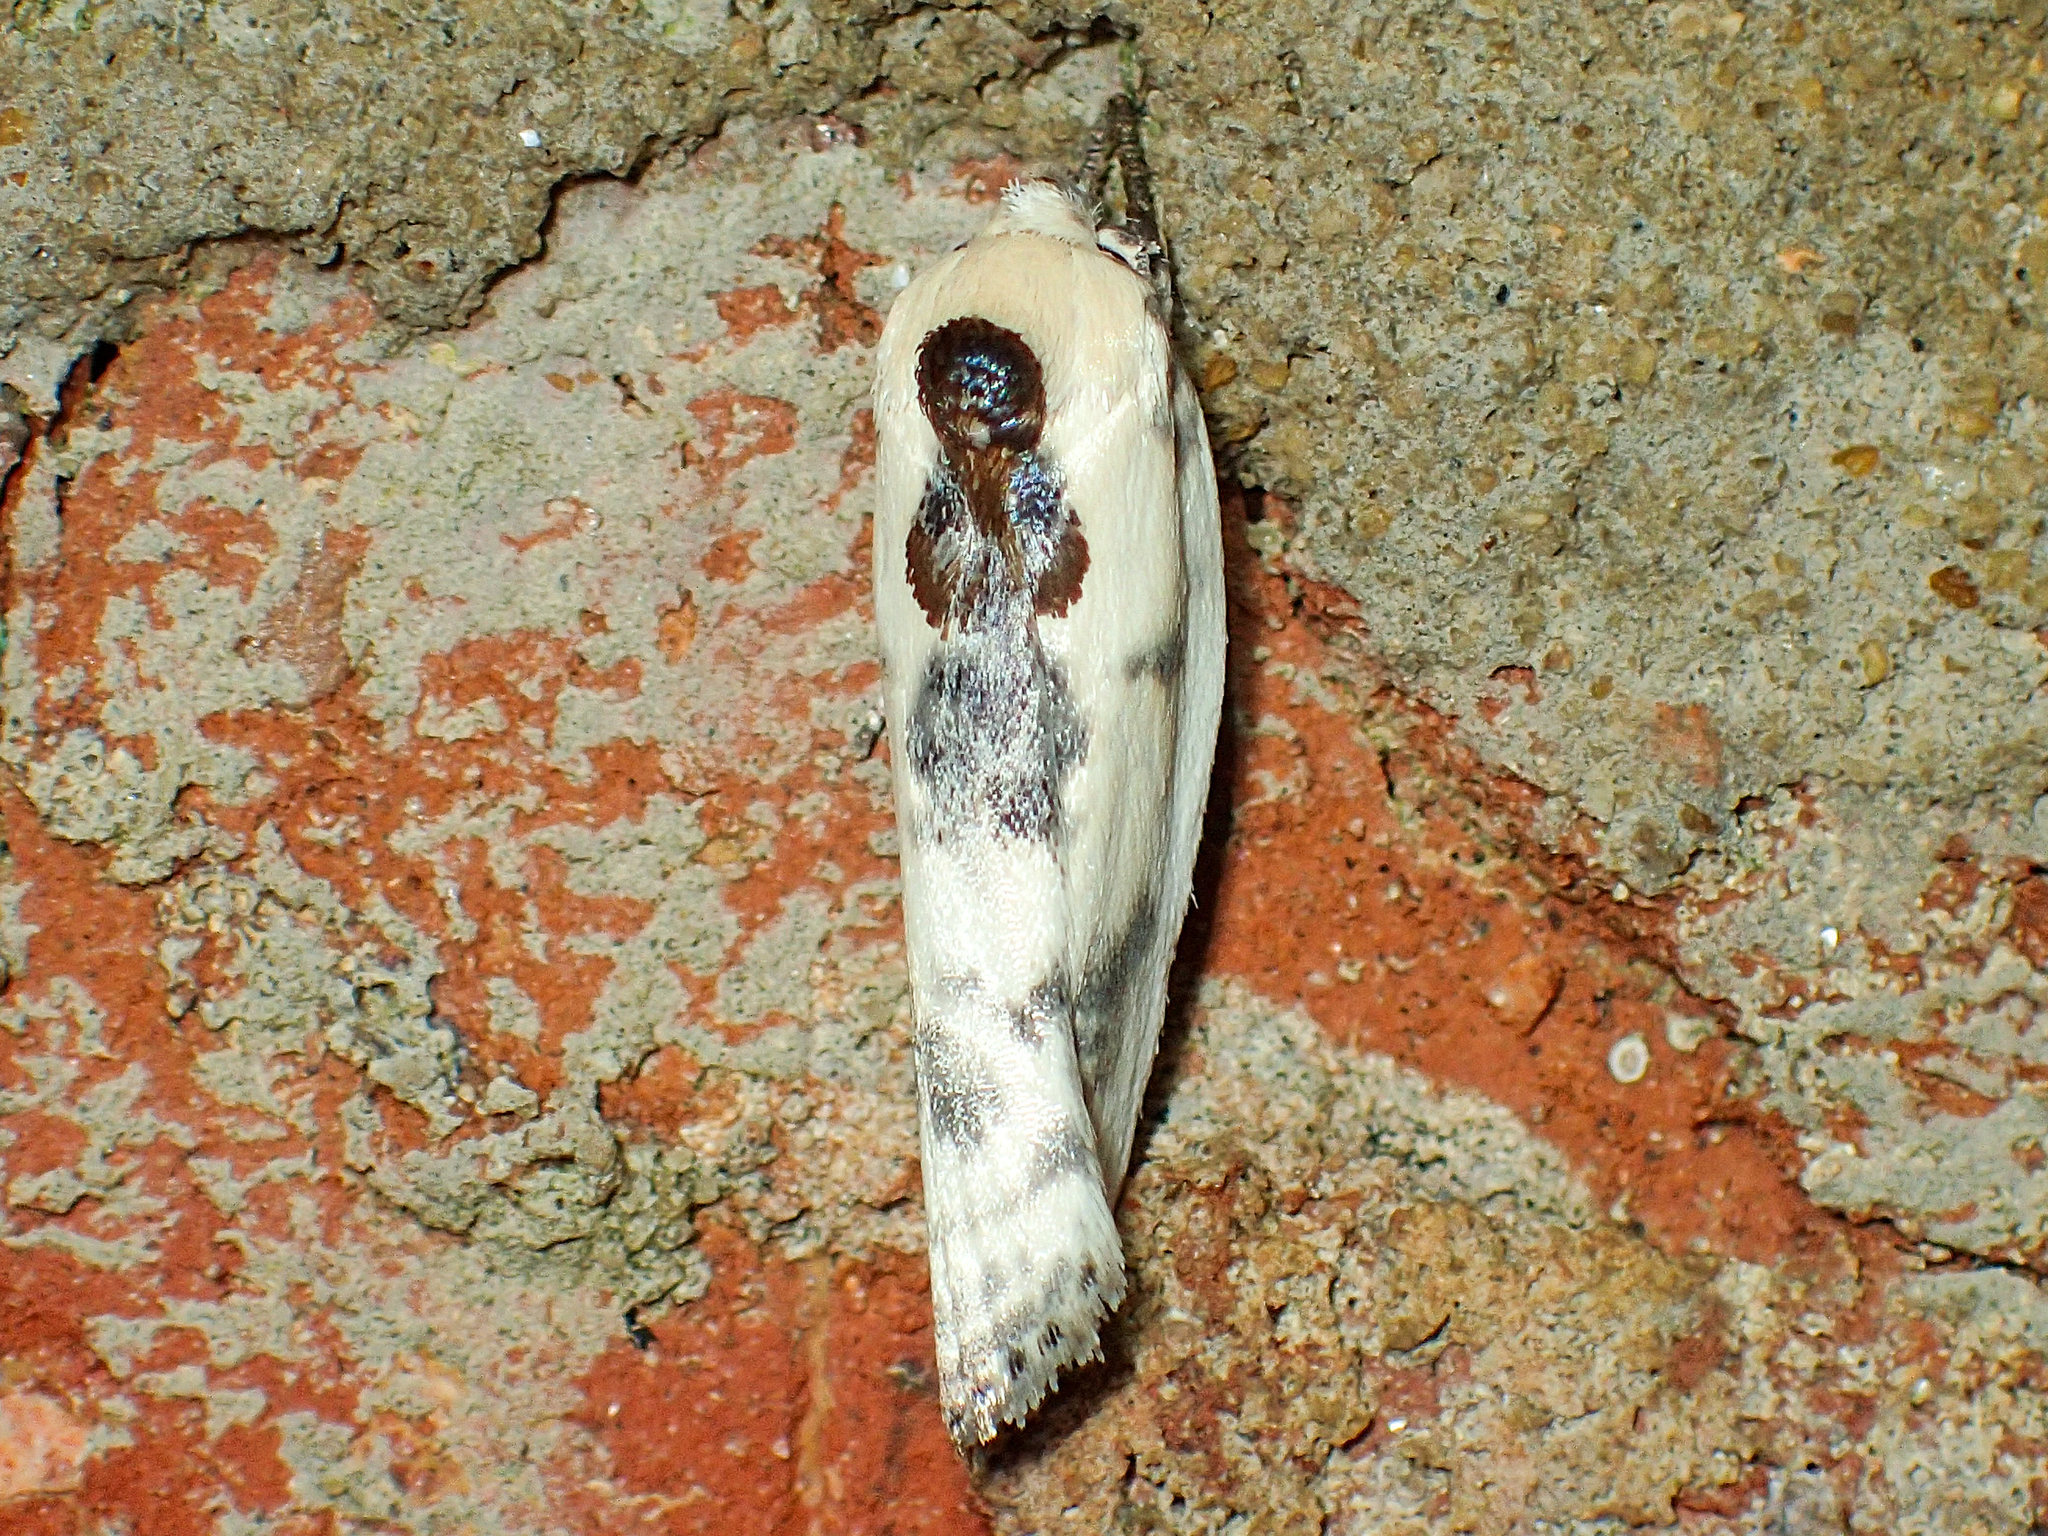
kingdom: Animalia
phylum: Arthropoda
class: Insecta
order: Lepidoptera
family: Depressariidae
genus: Antaeotricha
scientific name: Antaeotricha schlaegeri
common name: Schlaeger's fruitworm moth
